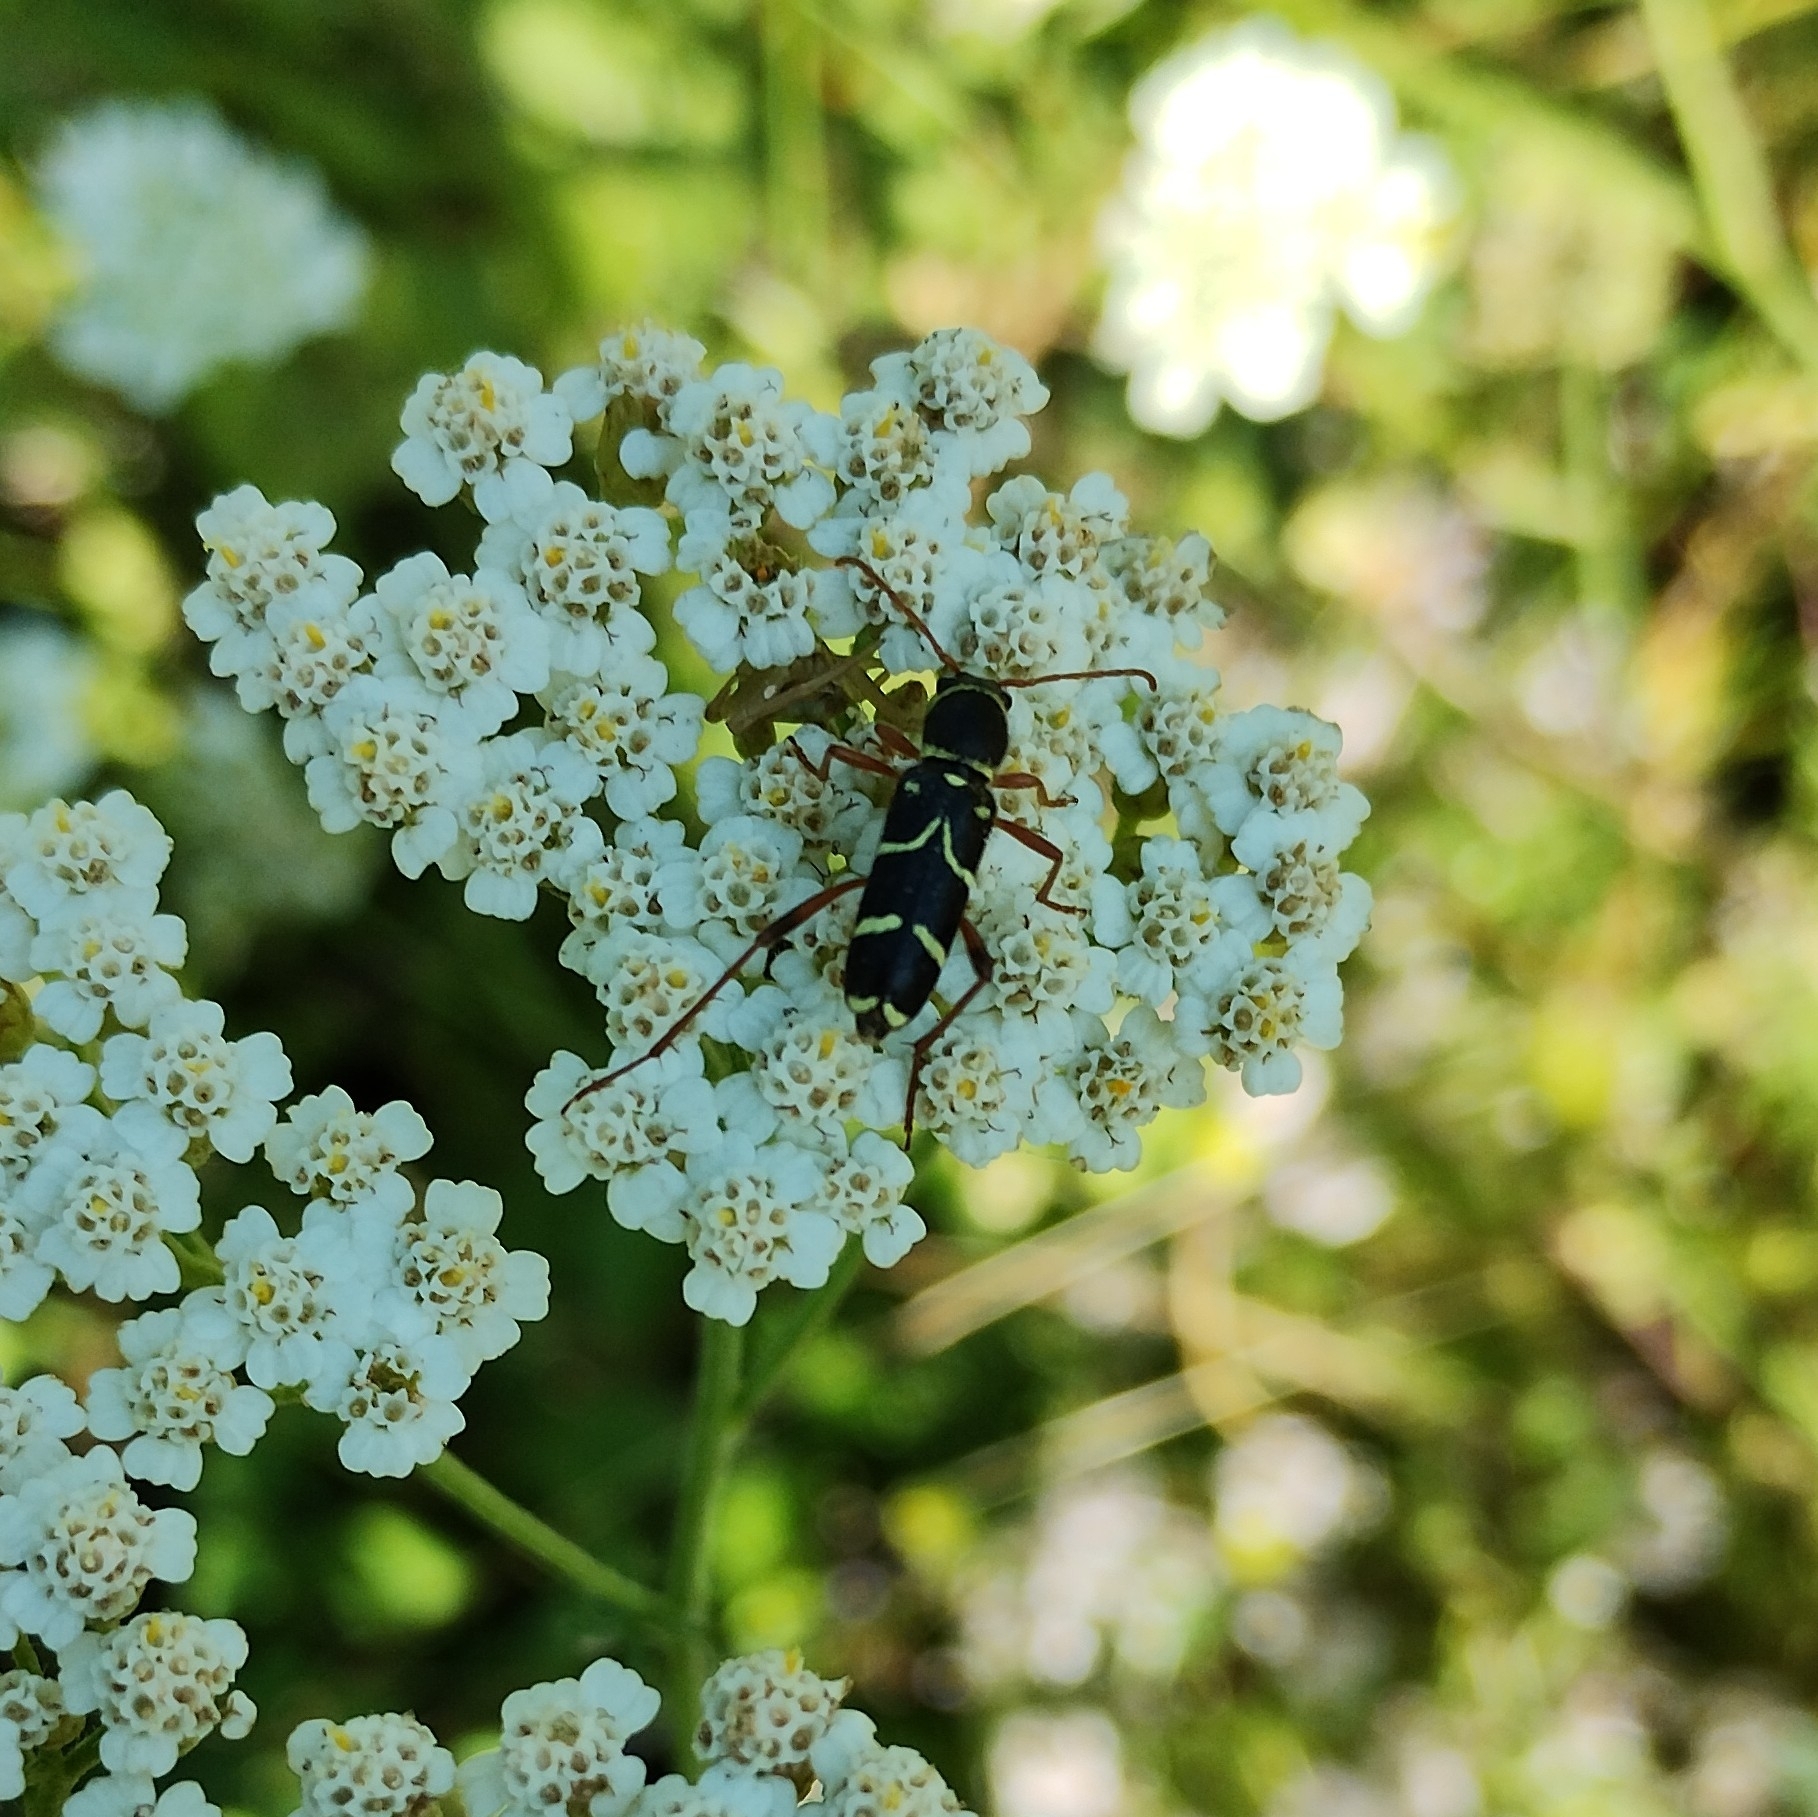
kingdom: Animalia
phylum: Arthropoda
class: Insecta
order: Coleoptera
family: Cerambycidae
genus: Clytus
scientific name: Clytus rhamni
